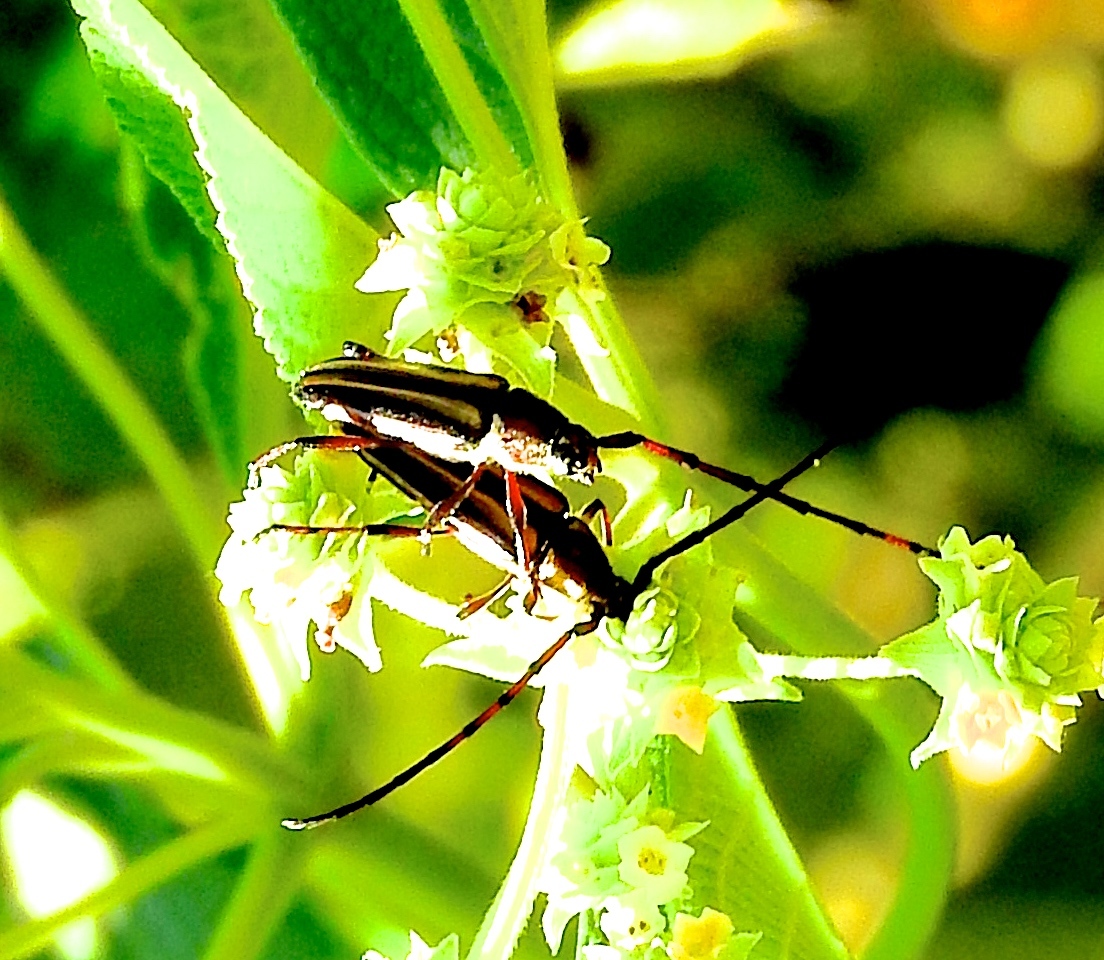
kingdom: Animalia
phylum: Arthropoda
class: Insecta
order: Coleoptera
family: Cerambycidae
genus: Sphaenothecus
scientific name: Sphaenothecus maccartyi
